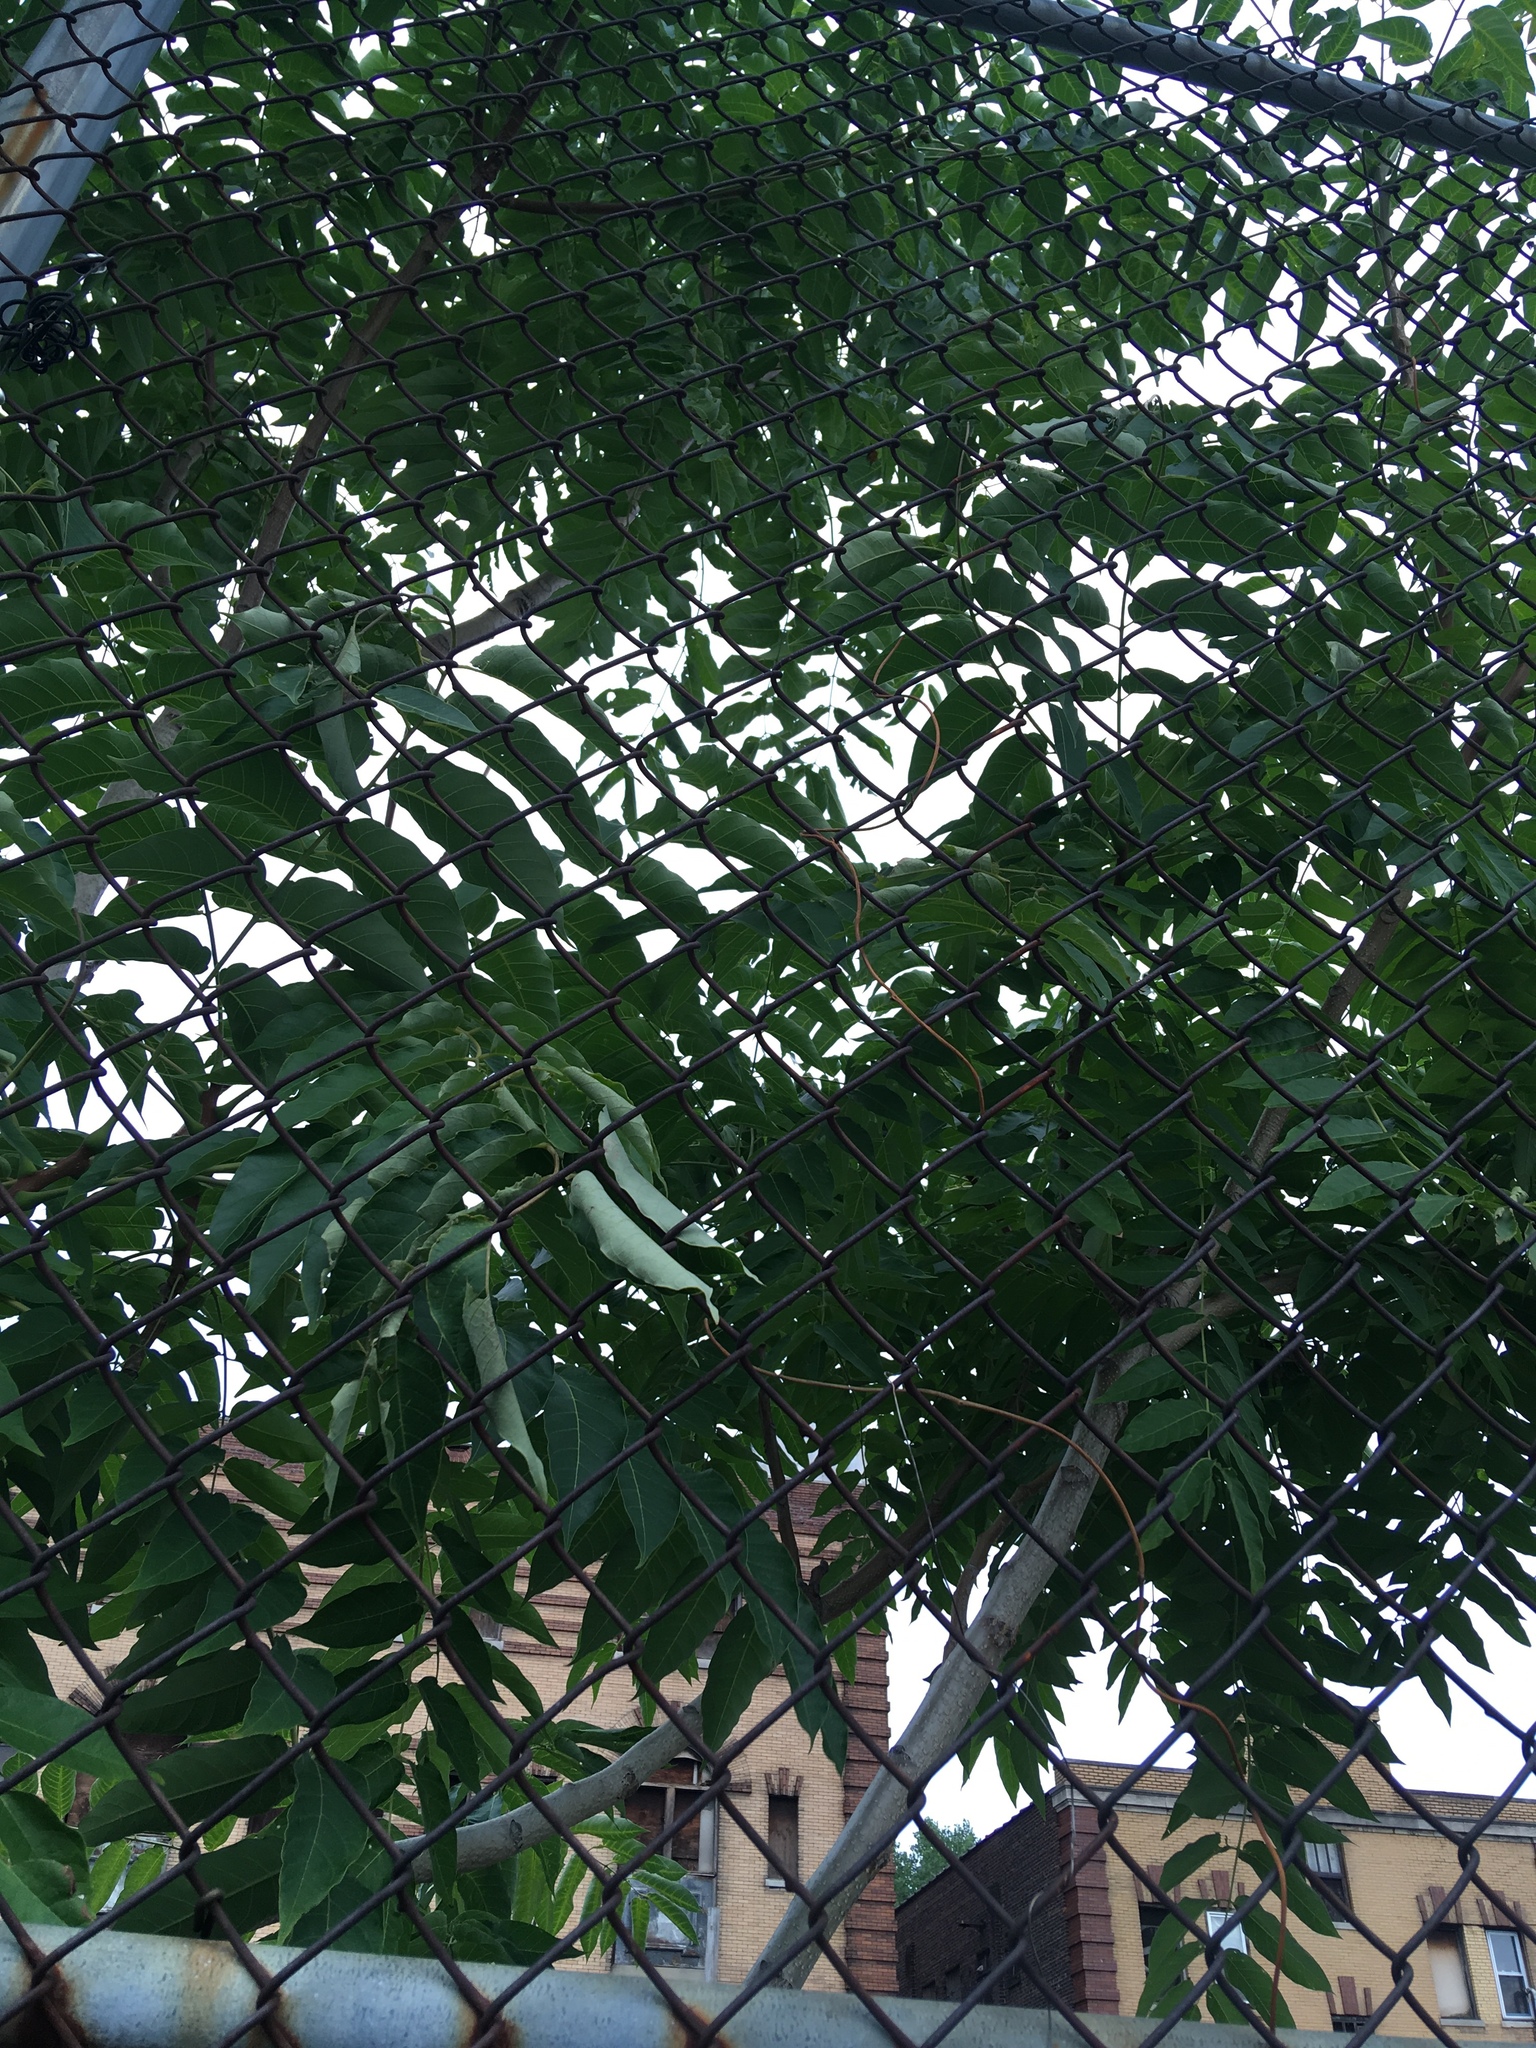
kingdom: Plantae
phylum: Tracheophyta
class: Magnoliopsida
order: Sapindales
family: Simaroubaceae
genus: Ailanthus
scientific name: Ailanthus altissima
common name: Tree-of-heaven
